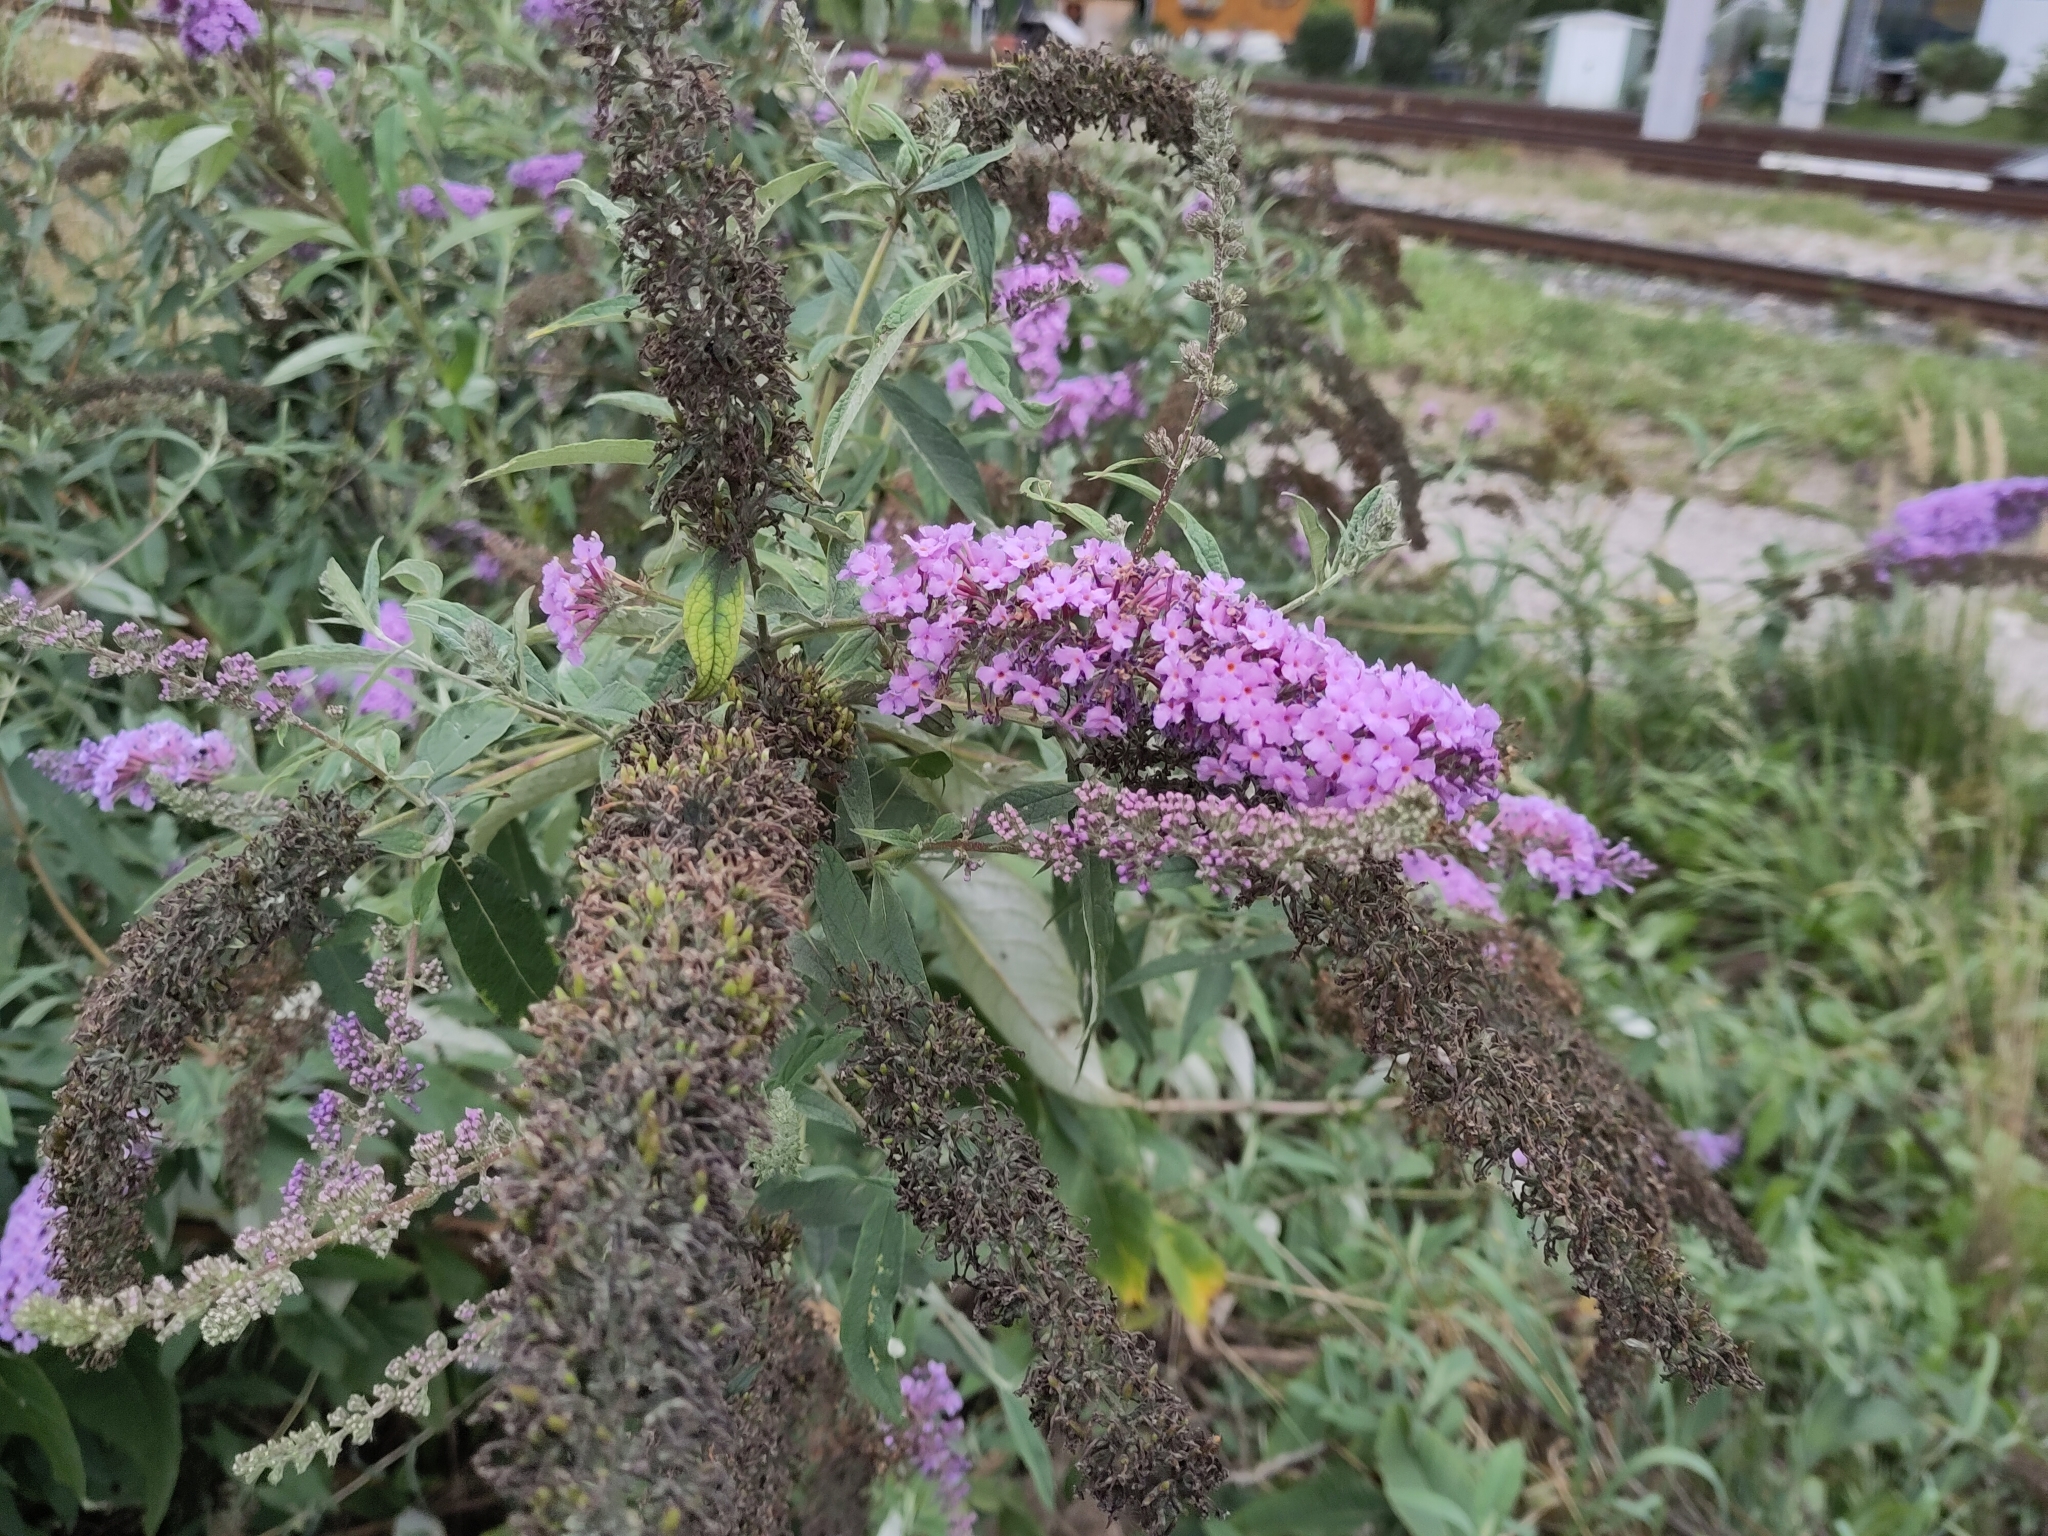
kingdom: Plantae
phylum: Tracheophyta
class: Magnoliopsida
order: Lamiales
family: Scrophulariaceae
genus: Buddleja
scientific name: Buddleja davidii
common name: Butterfly-bush
